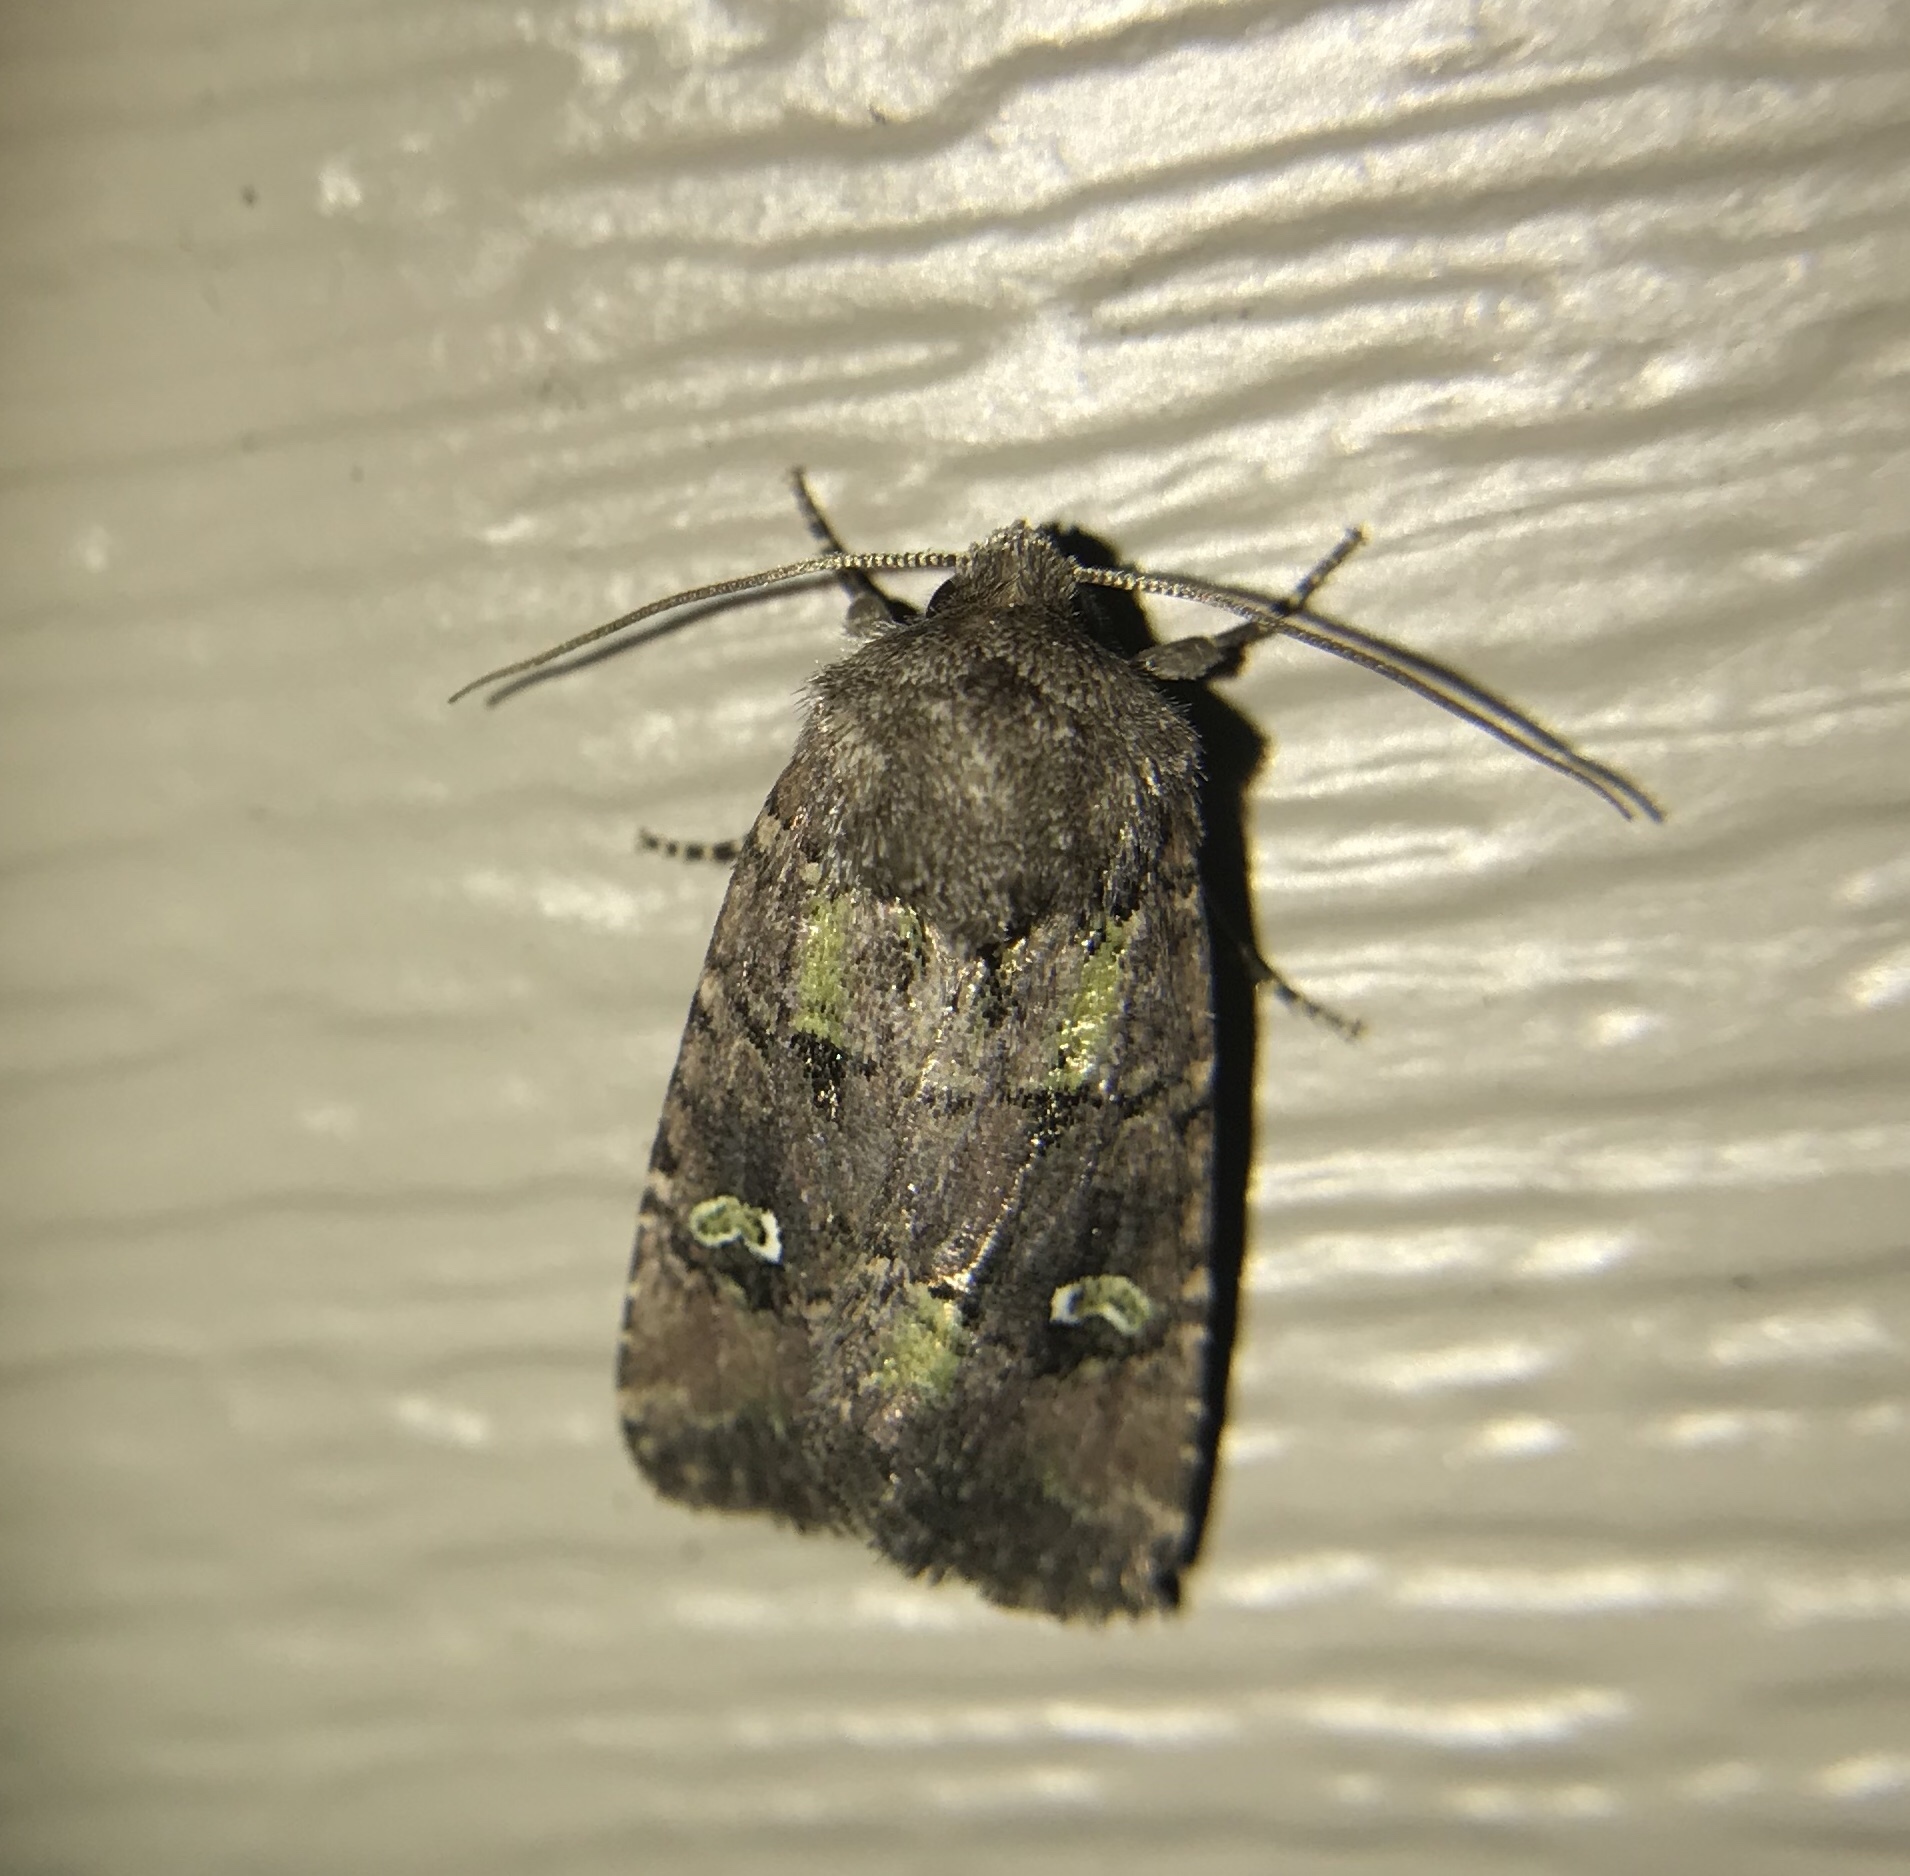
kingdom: Animalia
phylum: Arthropoda
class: Insecta
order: Lepidoptera
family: Noctuidae
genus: Lacinipolia
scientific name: Lacinipolia renigera
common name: Kidney-spotted minor
